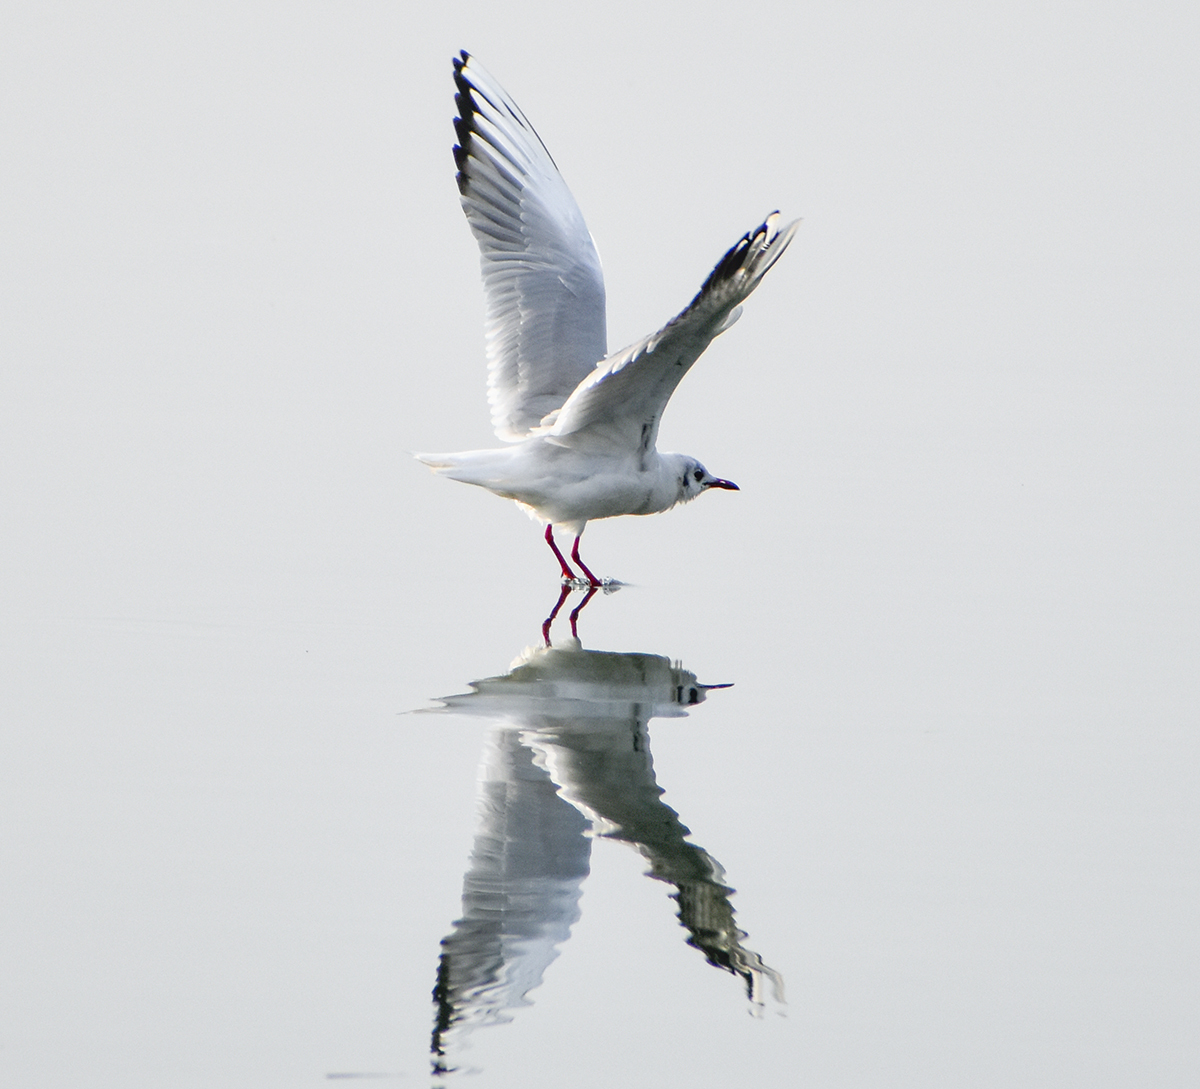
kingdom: Animalia
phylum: Chordata
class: Aves
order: Charadriiformes
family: Laridae
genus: Chroicocephalus
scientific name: Chroicocephalus ridibundus
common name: Black-headed gull
